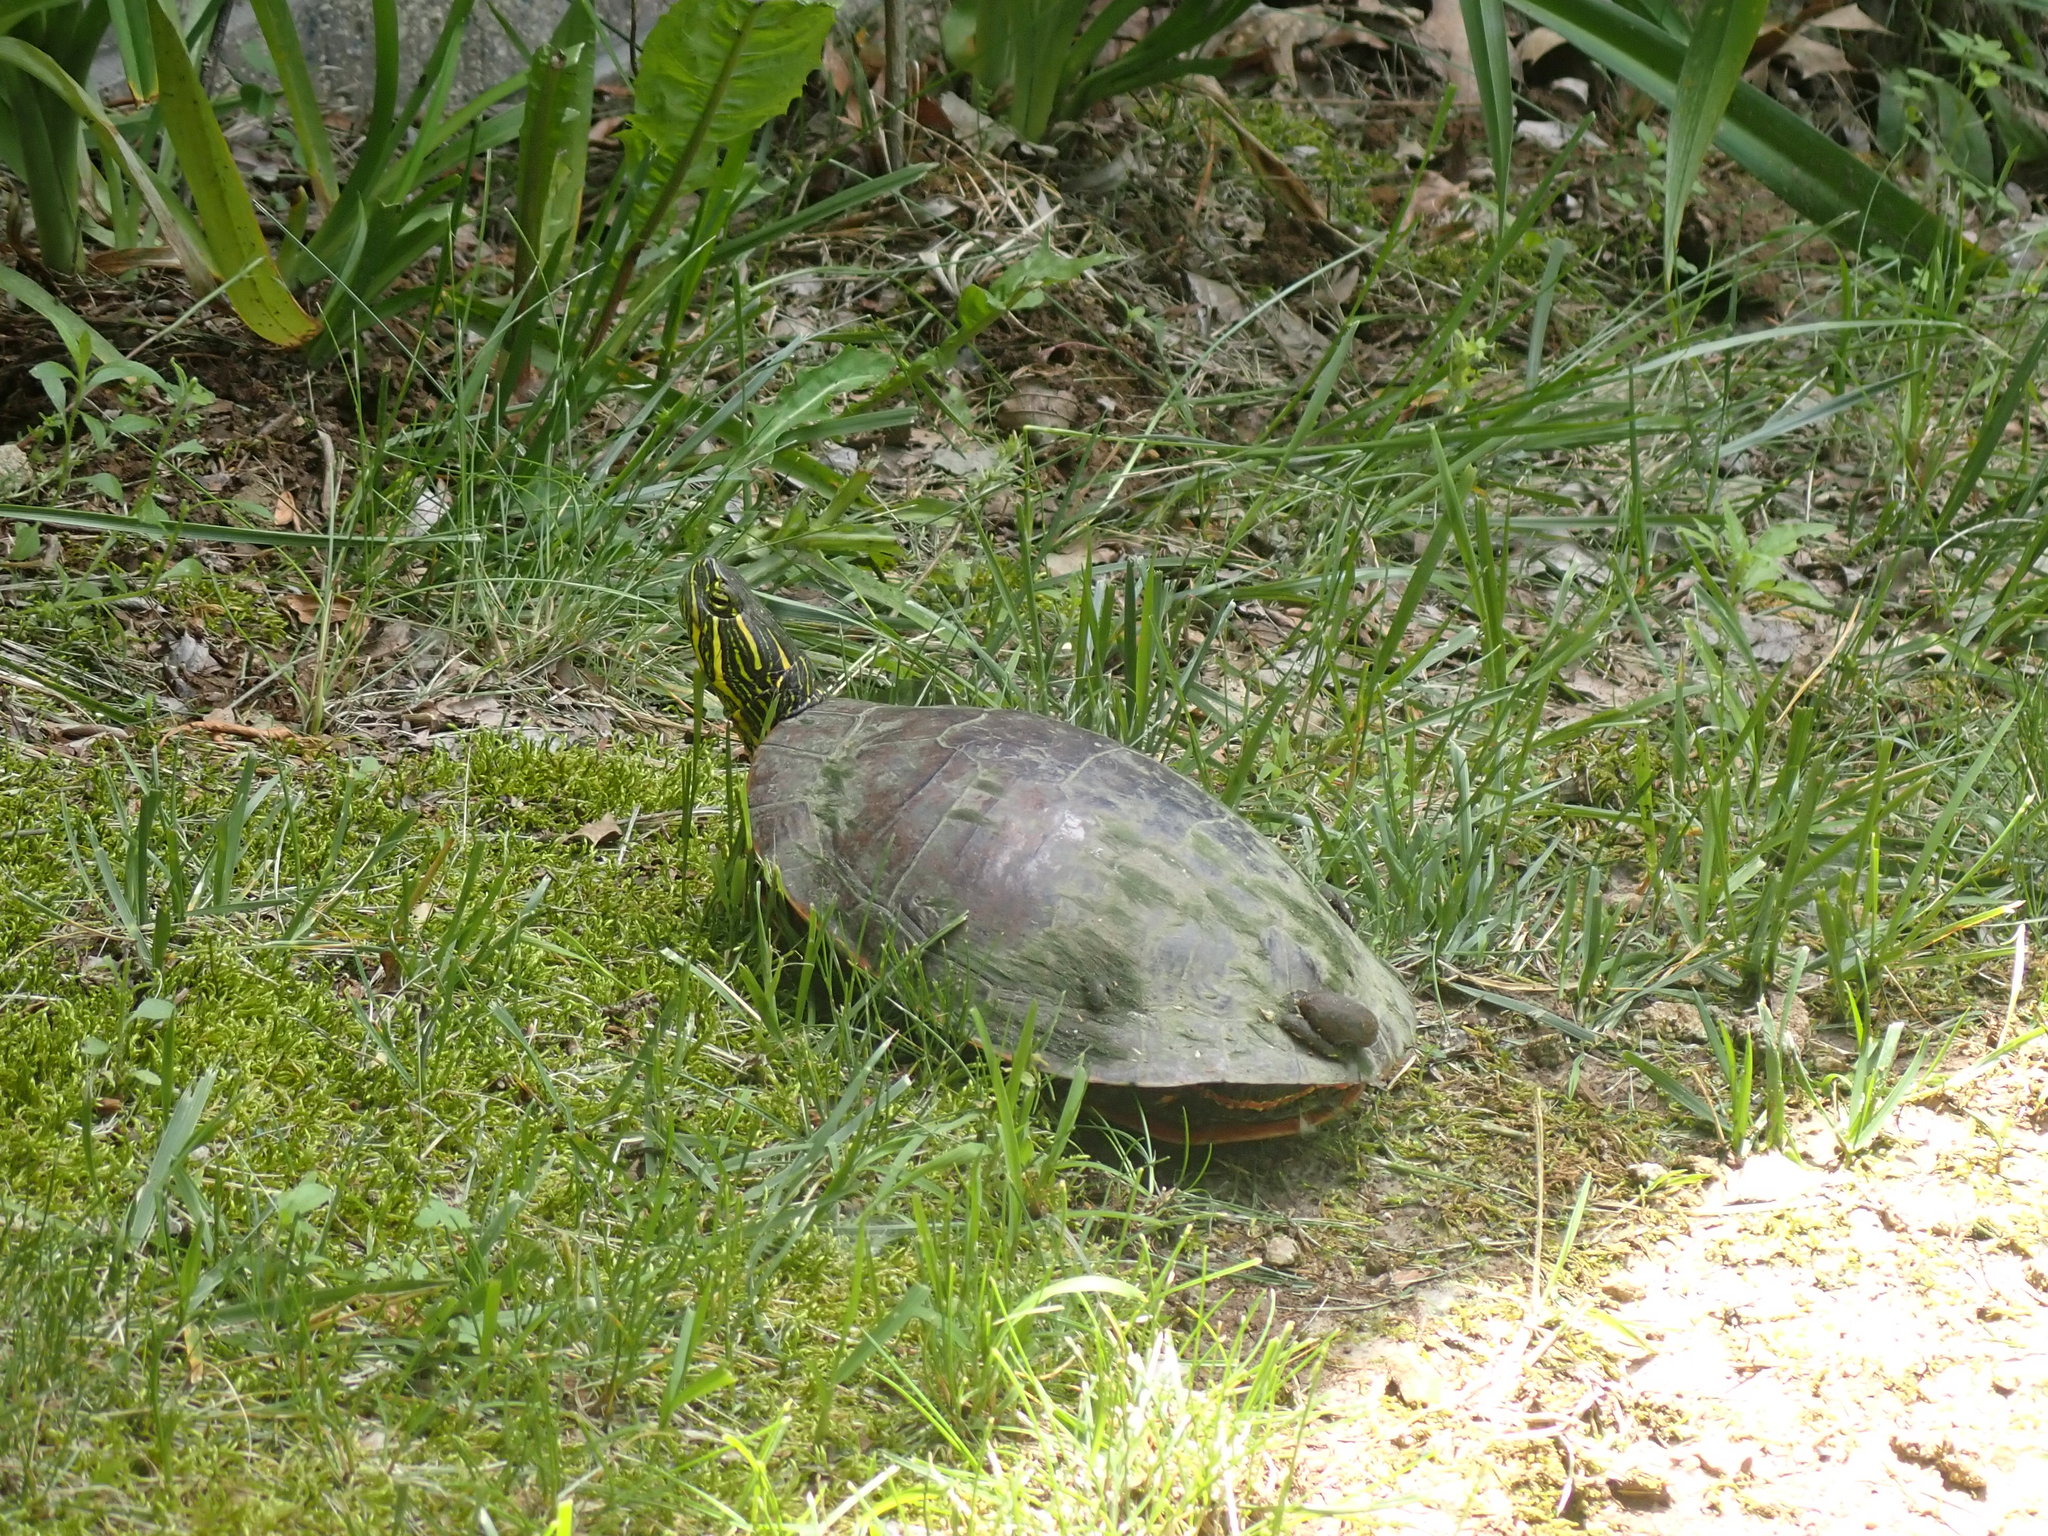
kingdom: Animalia
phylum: Chordata
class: Testudines
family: Emydidae
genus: Chrysemys
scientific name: Chrysemys picta
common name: Painted turtle
